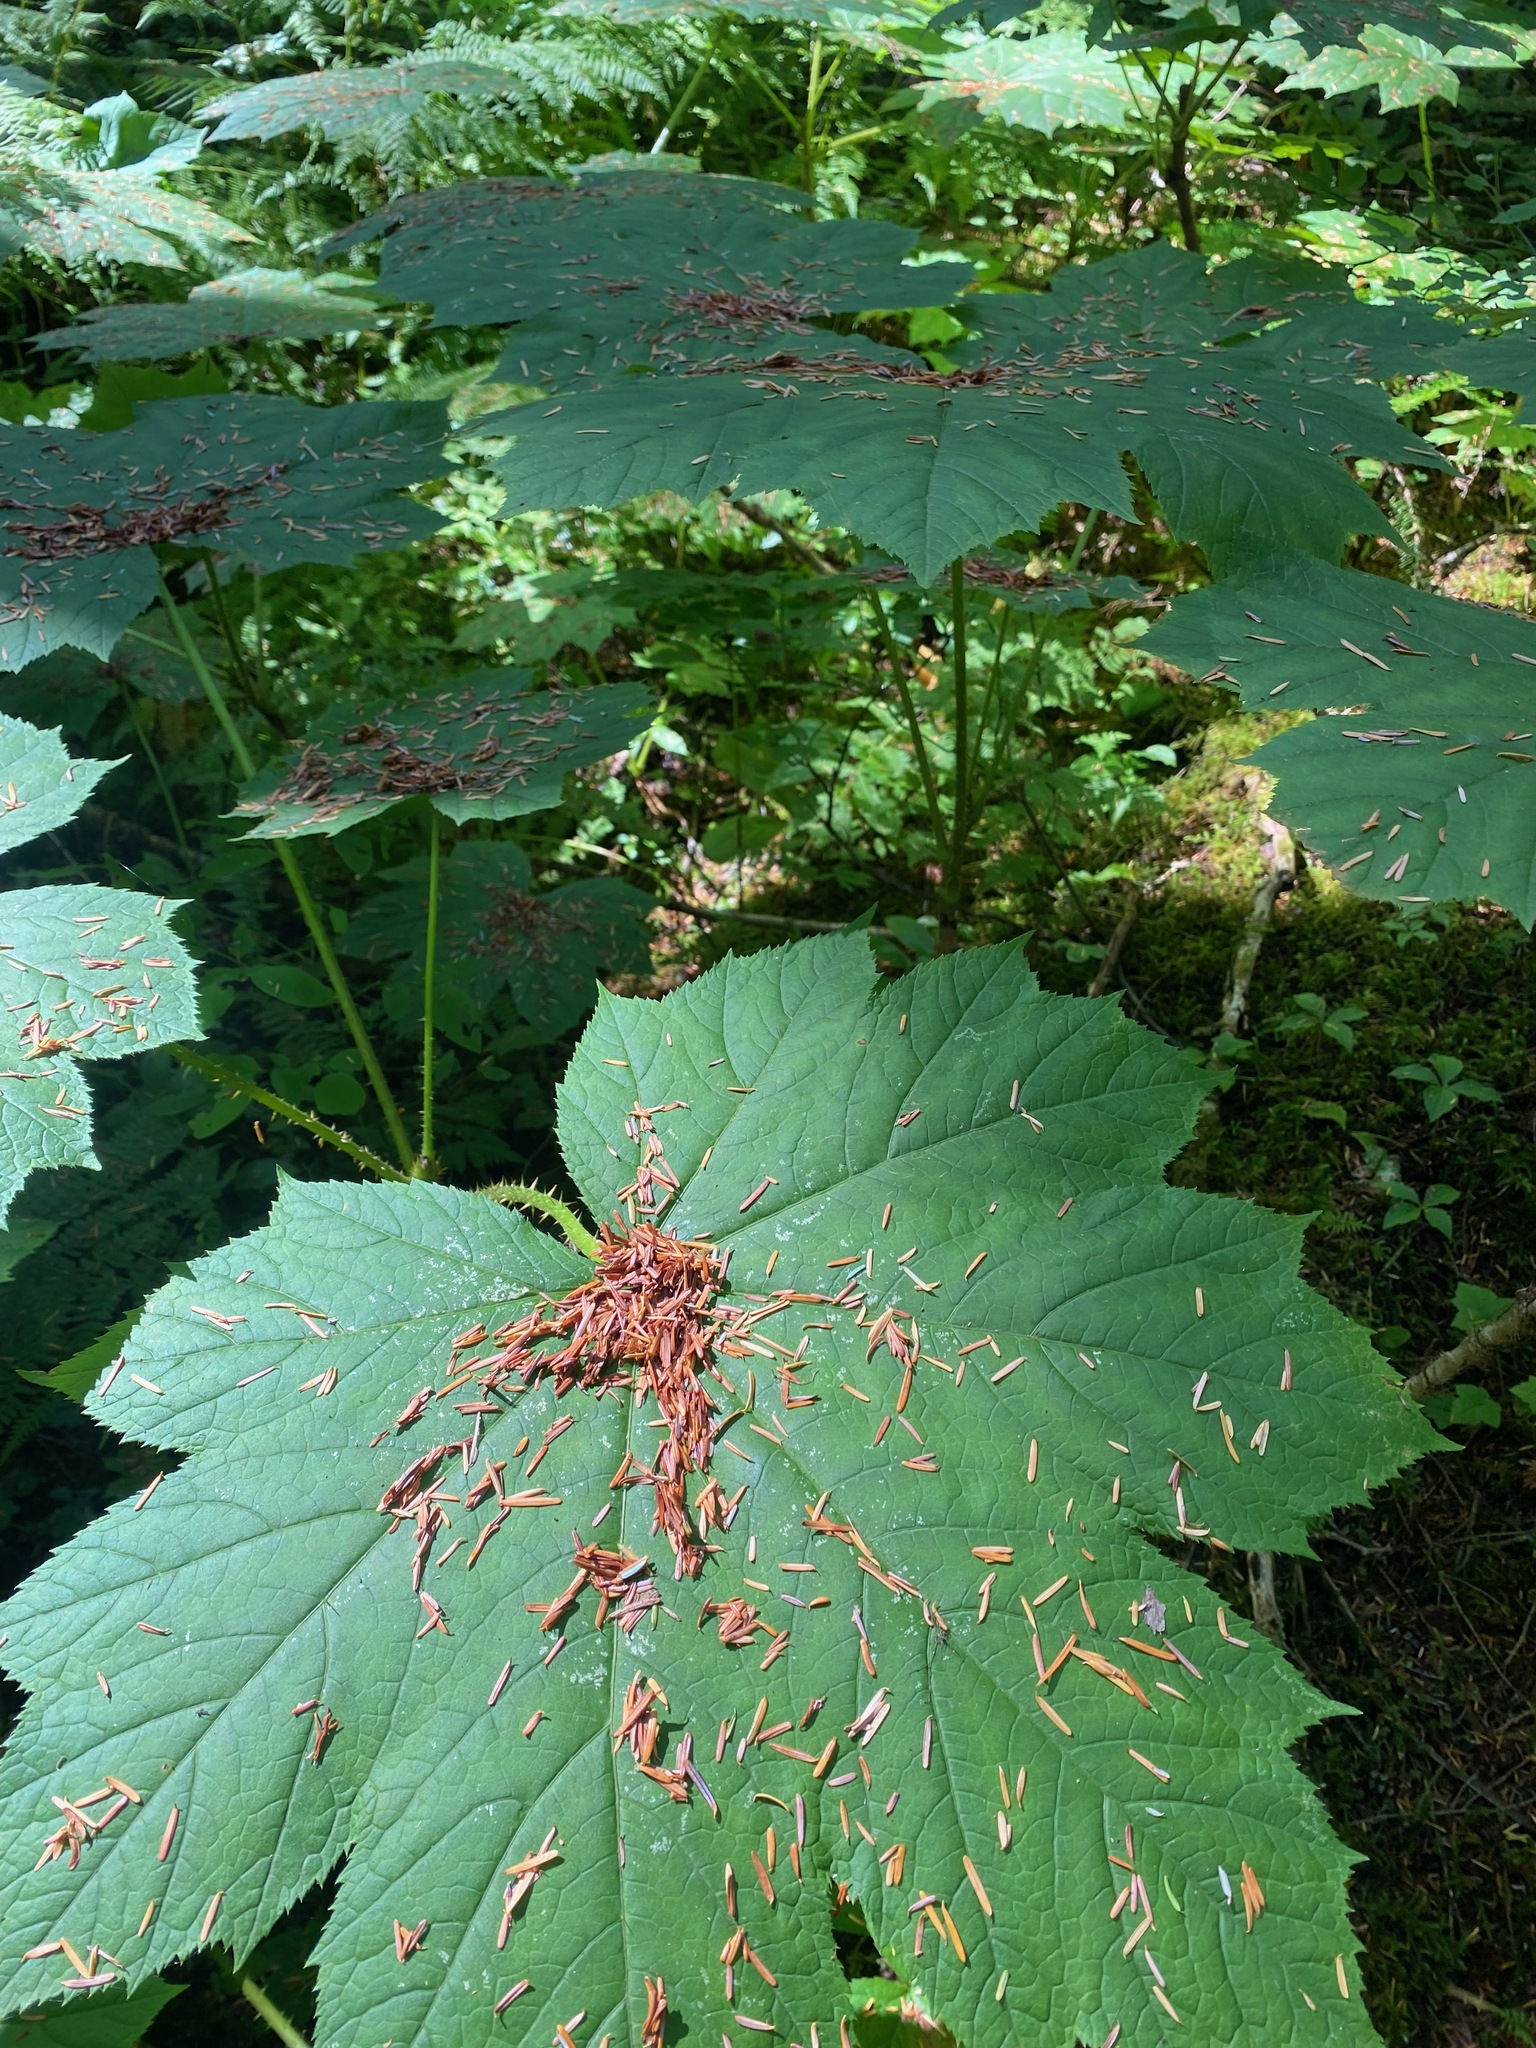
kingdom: Plantae
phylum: Tracheophyta
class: Magnoliopsida
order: Apiales
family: Araliaceae
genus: Oplopanax
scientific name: Oplopanax horridus
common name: Devil's walking-stick
